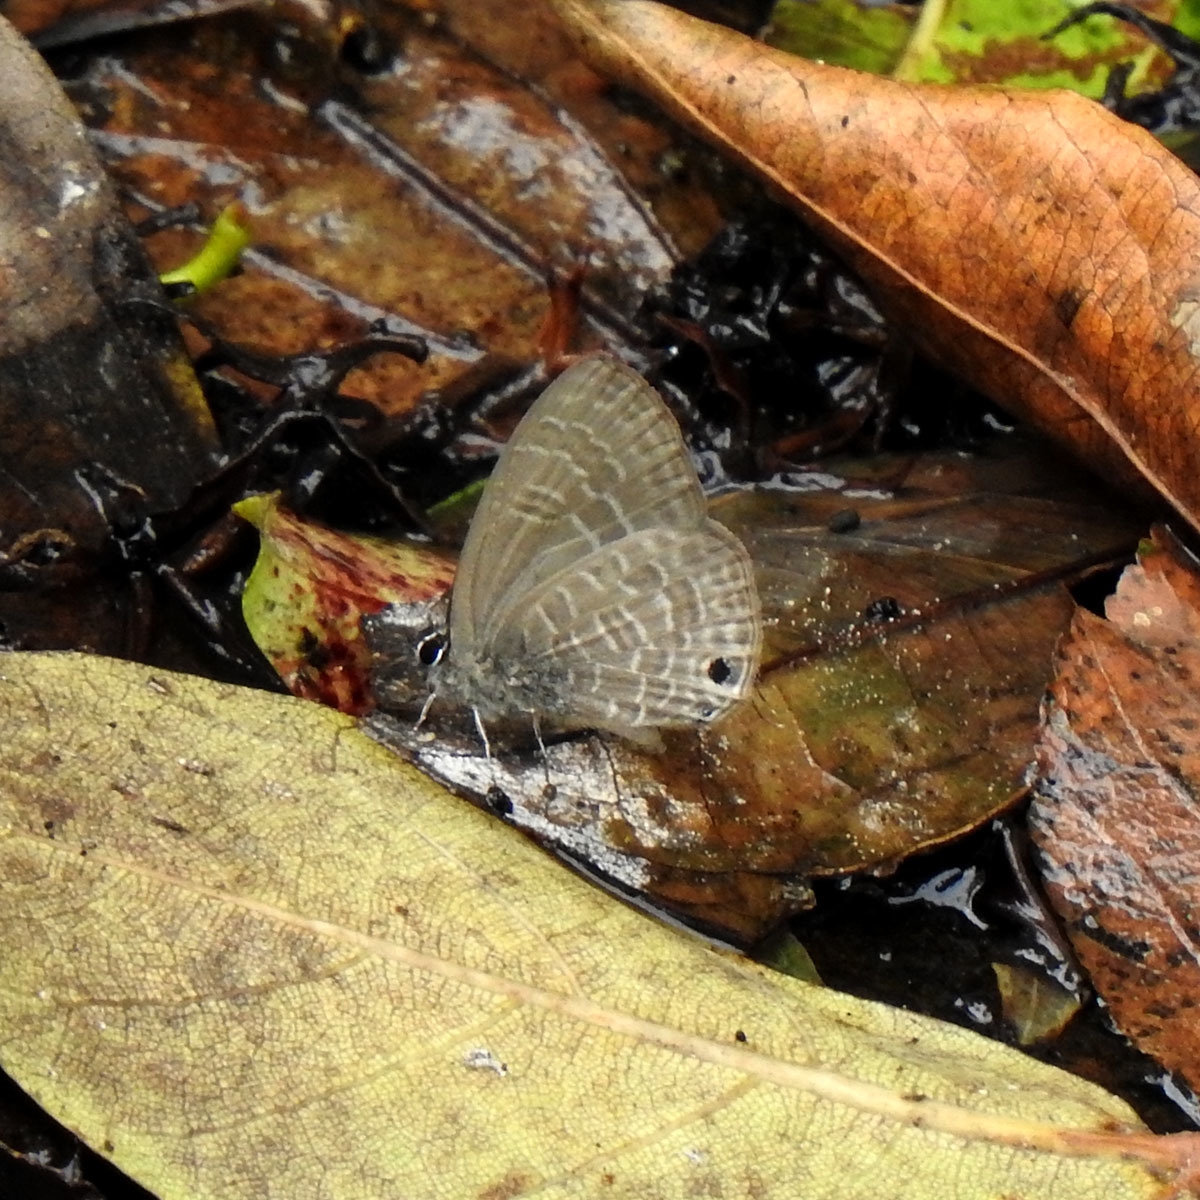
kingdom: Animalia
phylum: Arthropoda
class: Insecta
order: Lepidoptera
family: Lycaenidae
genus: Nacaduba
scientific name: Nacaduba hermus
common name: Pale four-line blue
